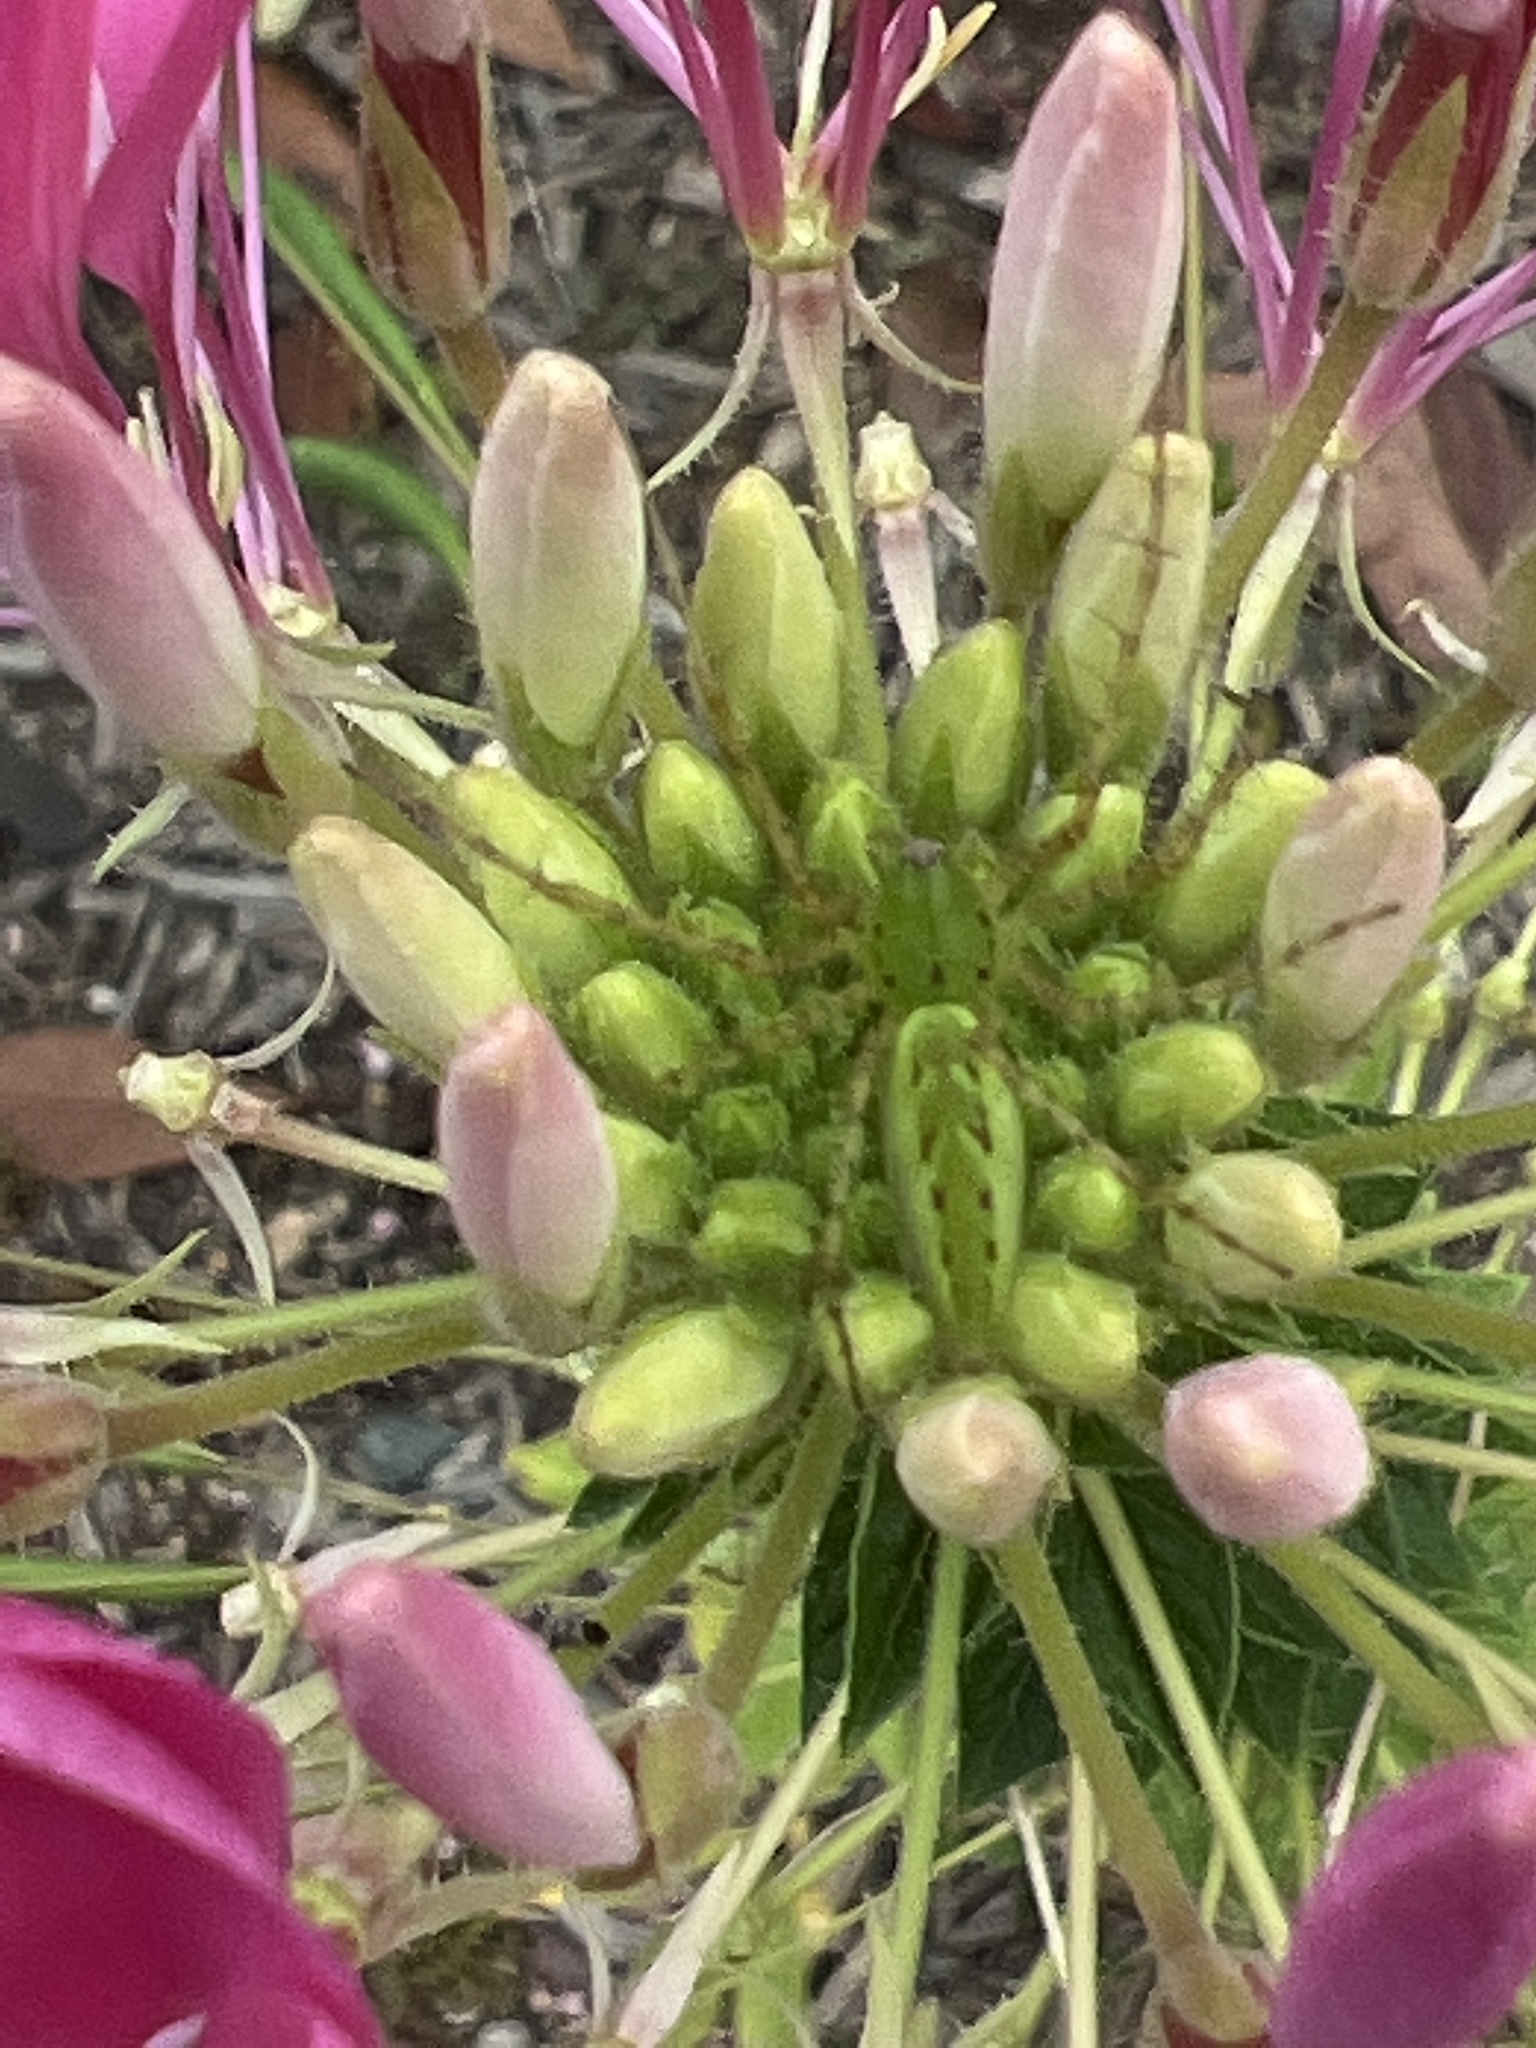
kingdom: Animalia
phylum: Arthropoda
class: Arachnida
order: Araneae
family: Oxyopidae
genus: Peucetia
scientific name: Peucetia viridans
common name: Lynx spiders
